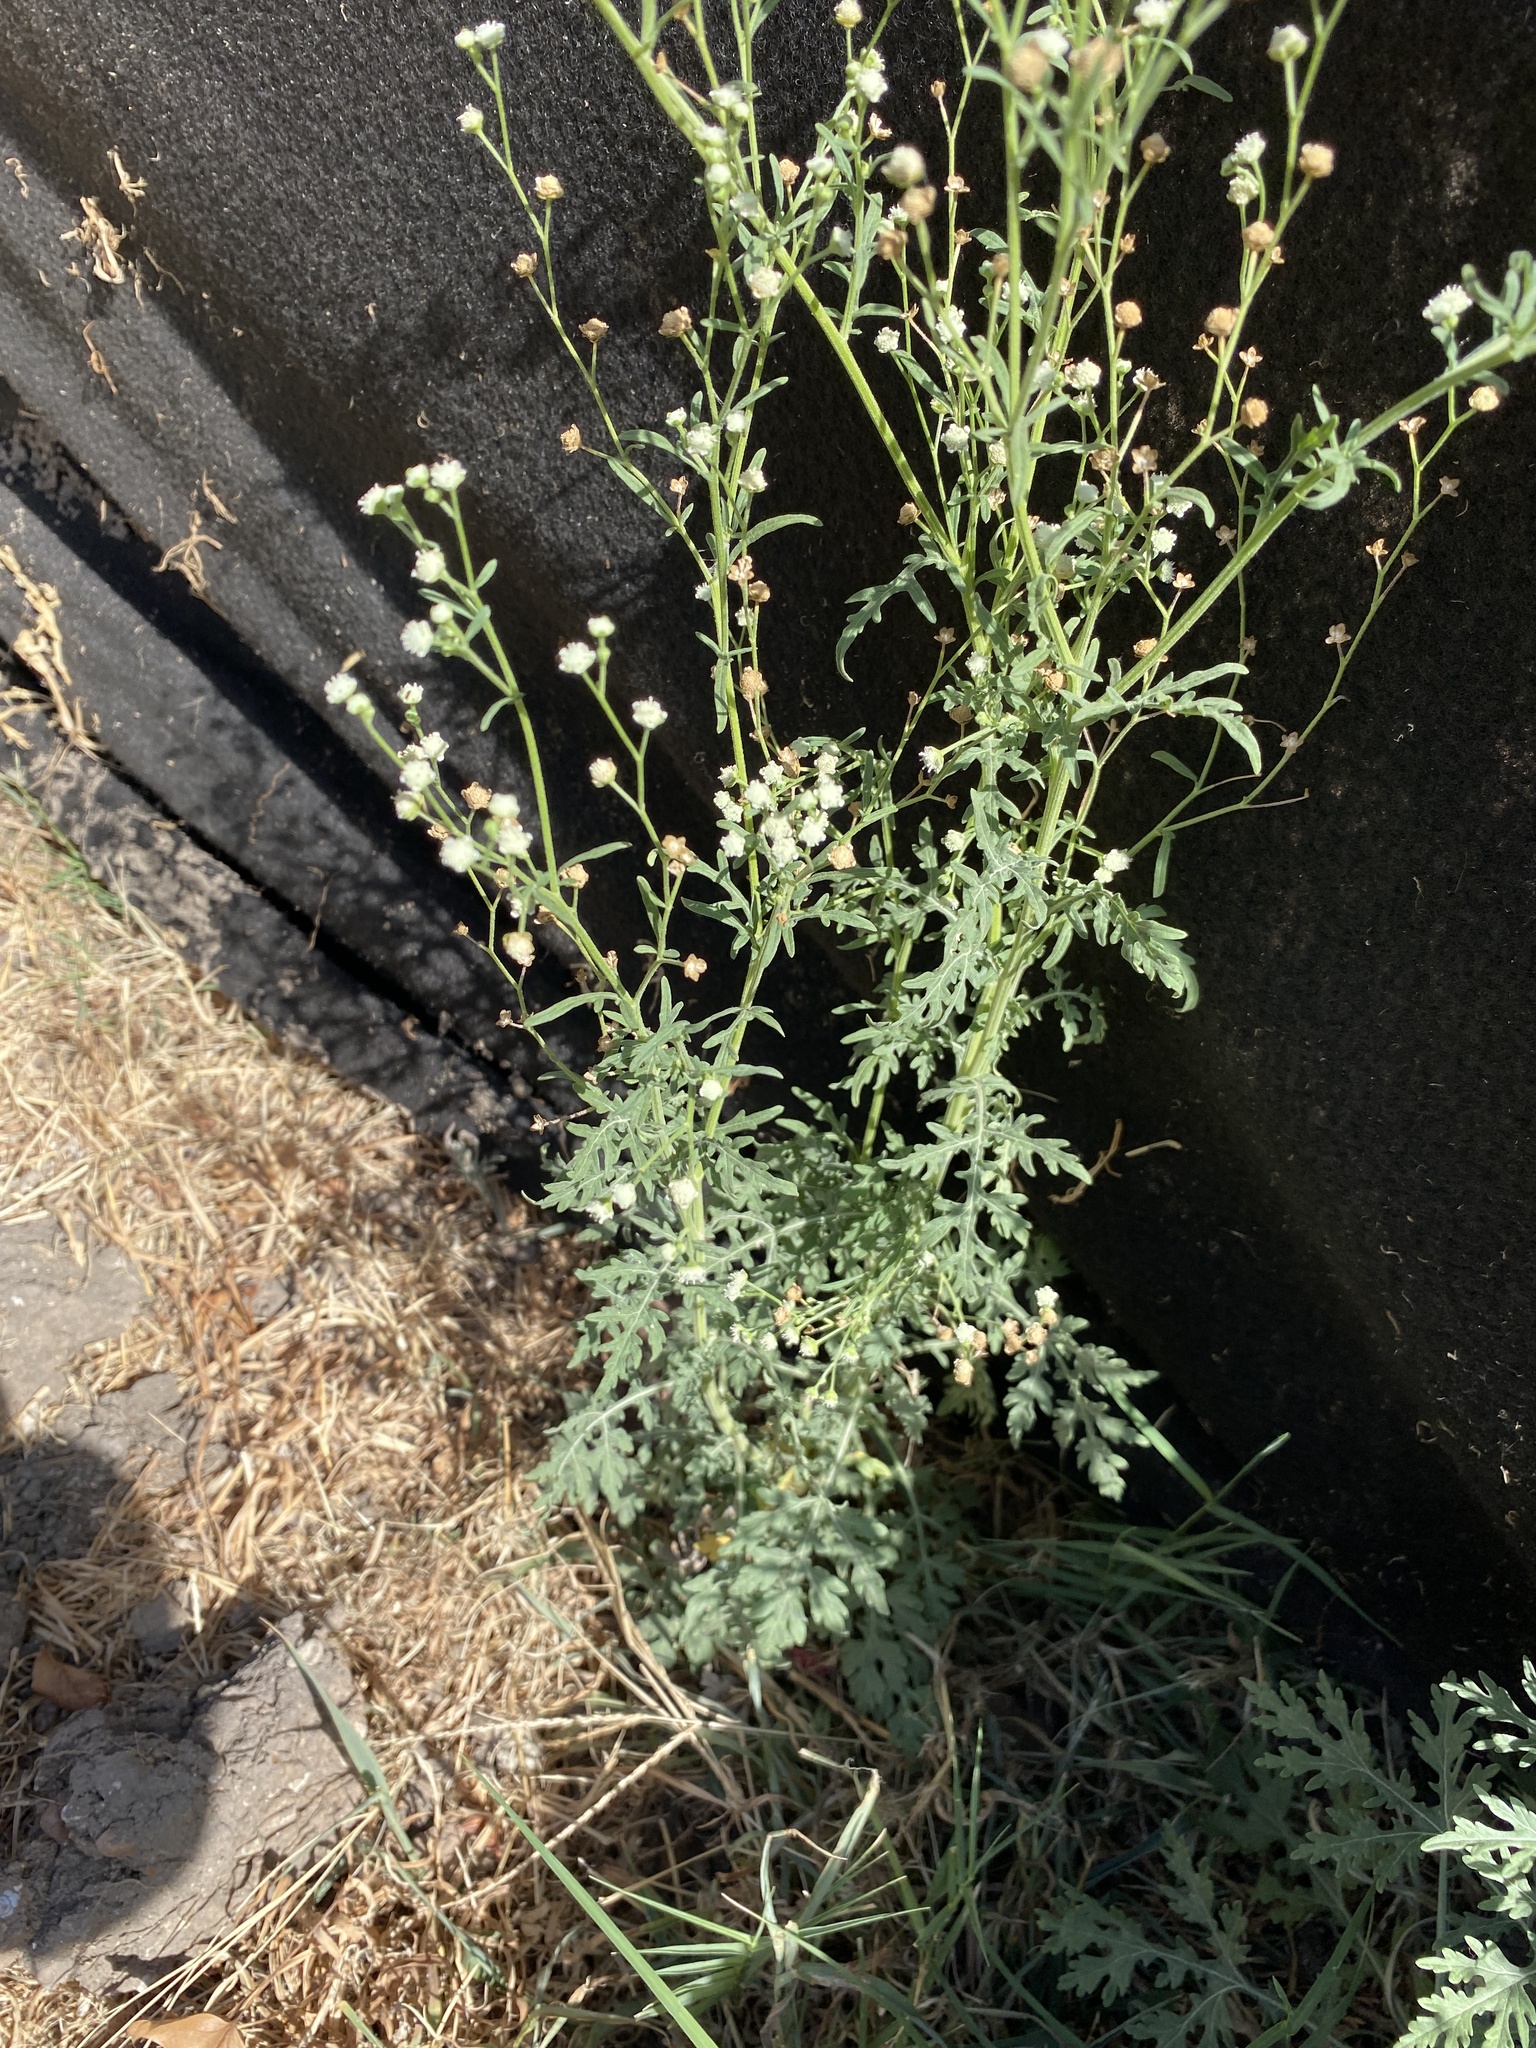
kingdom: Plantae
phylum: Tracheophyta
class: Magnoliopsida
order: Asterales
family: Asteraceae
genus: Parthenium
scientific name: Parthenium hysterophorus
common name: Santa maria feverfew
